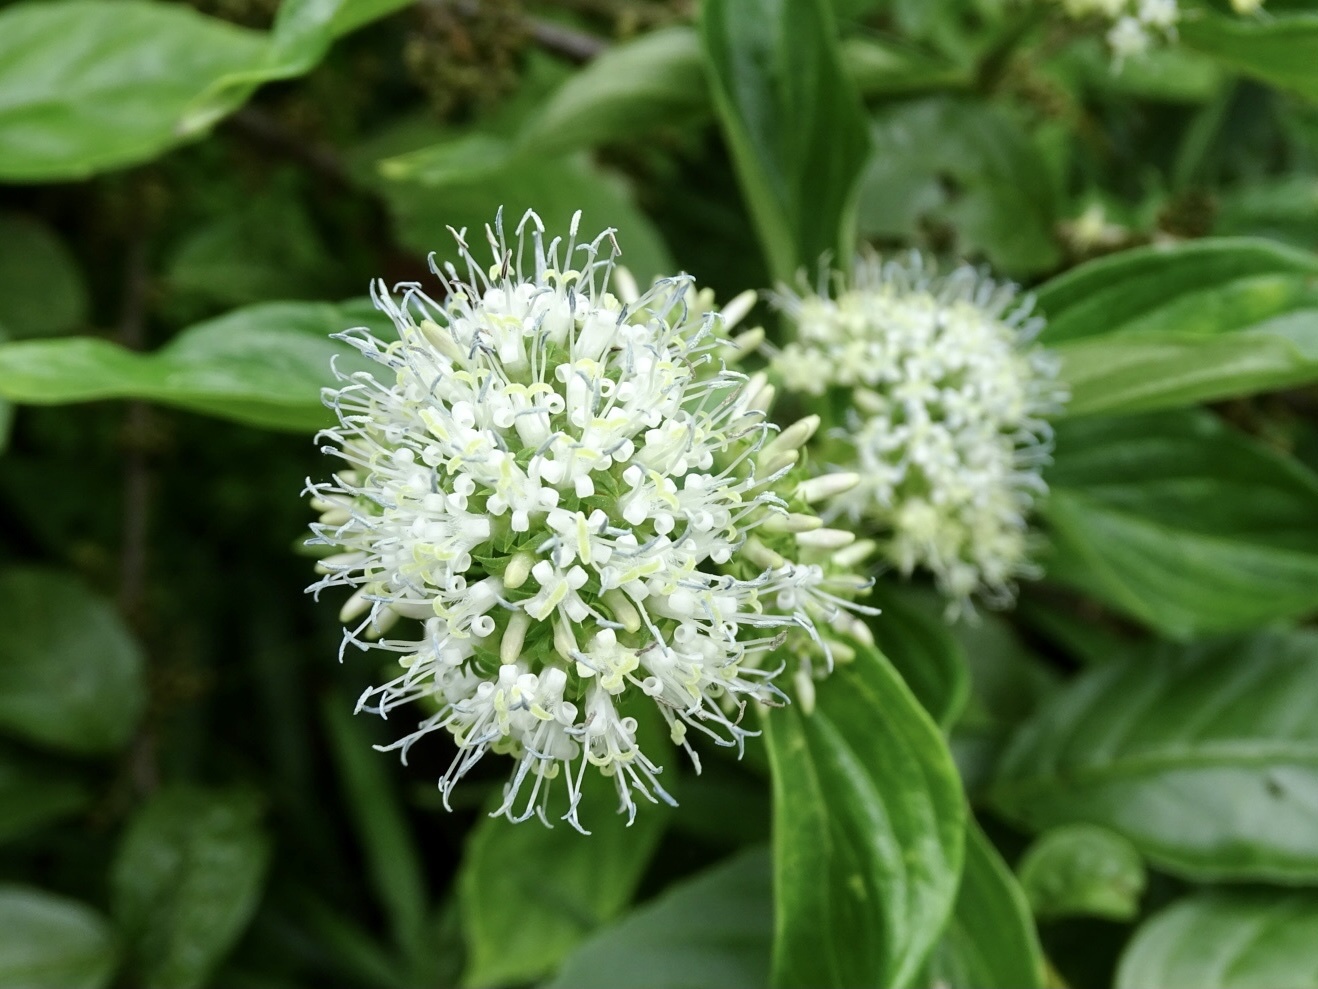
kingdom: Plantae
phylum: Tracheophyta
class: Magnoliopsida
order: Gentianales
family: Rubiaceae
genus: Dimetia
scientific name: Dimetia hedyotidea
